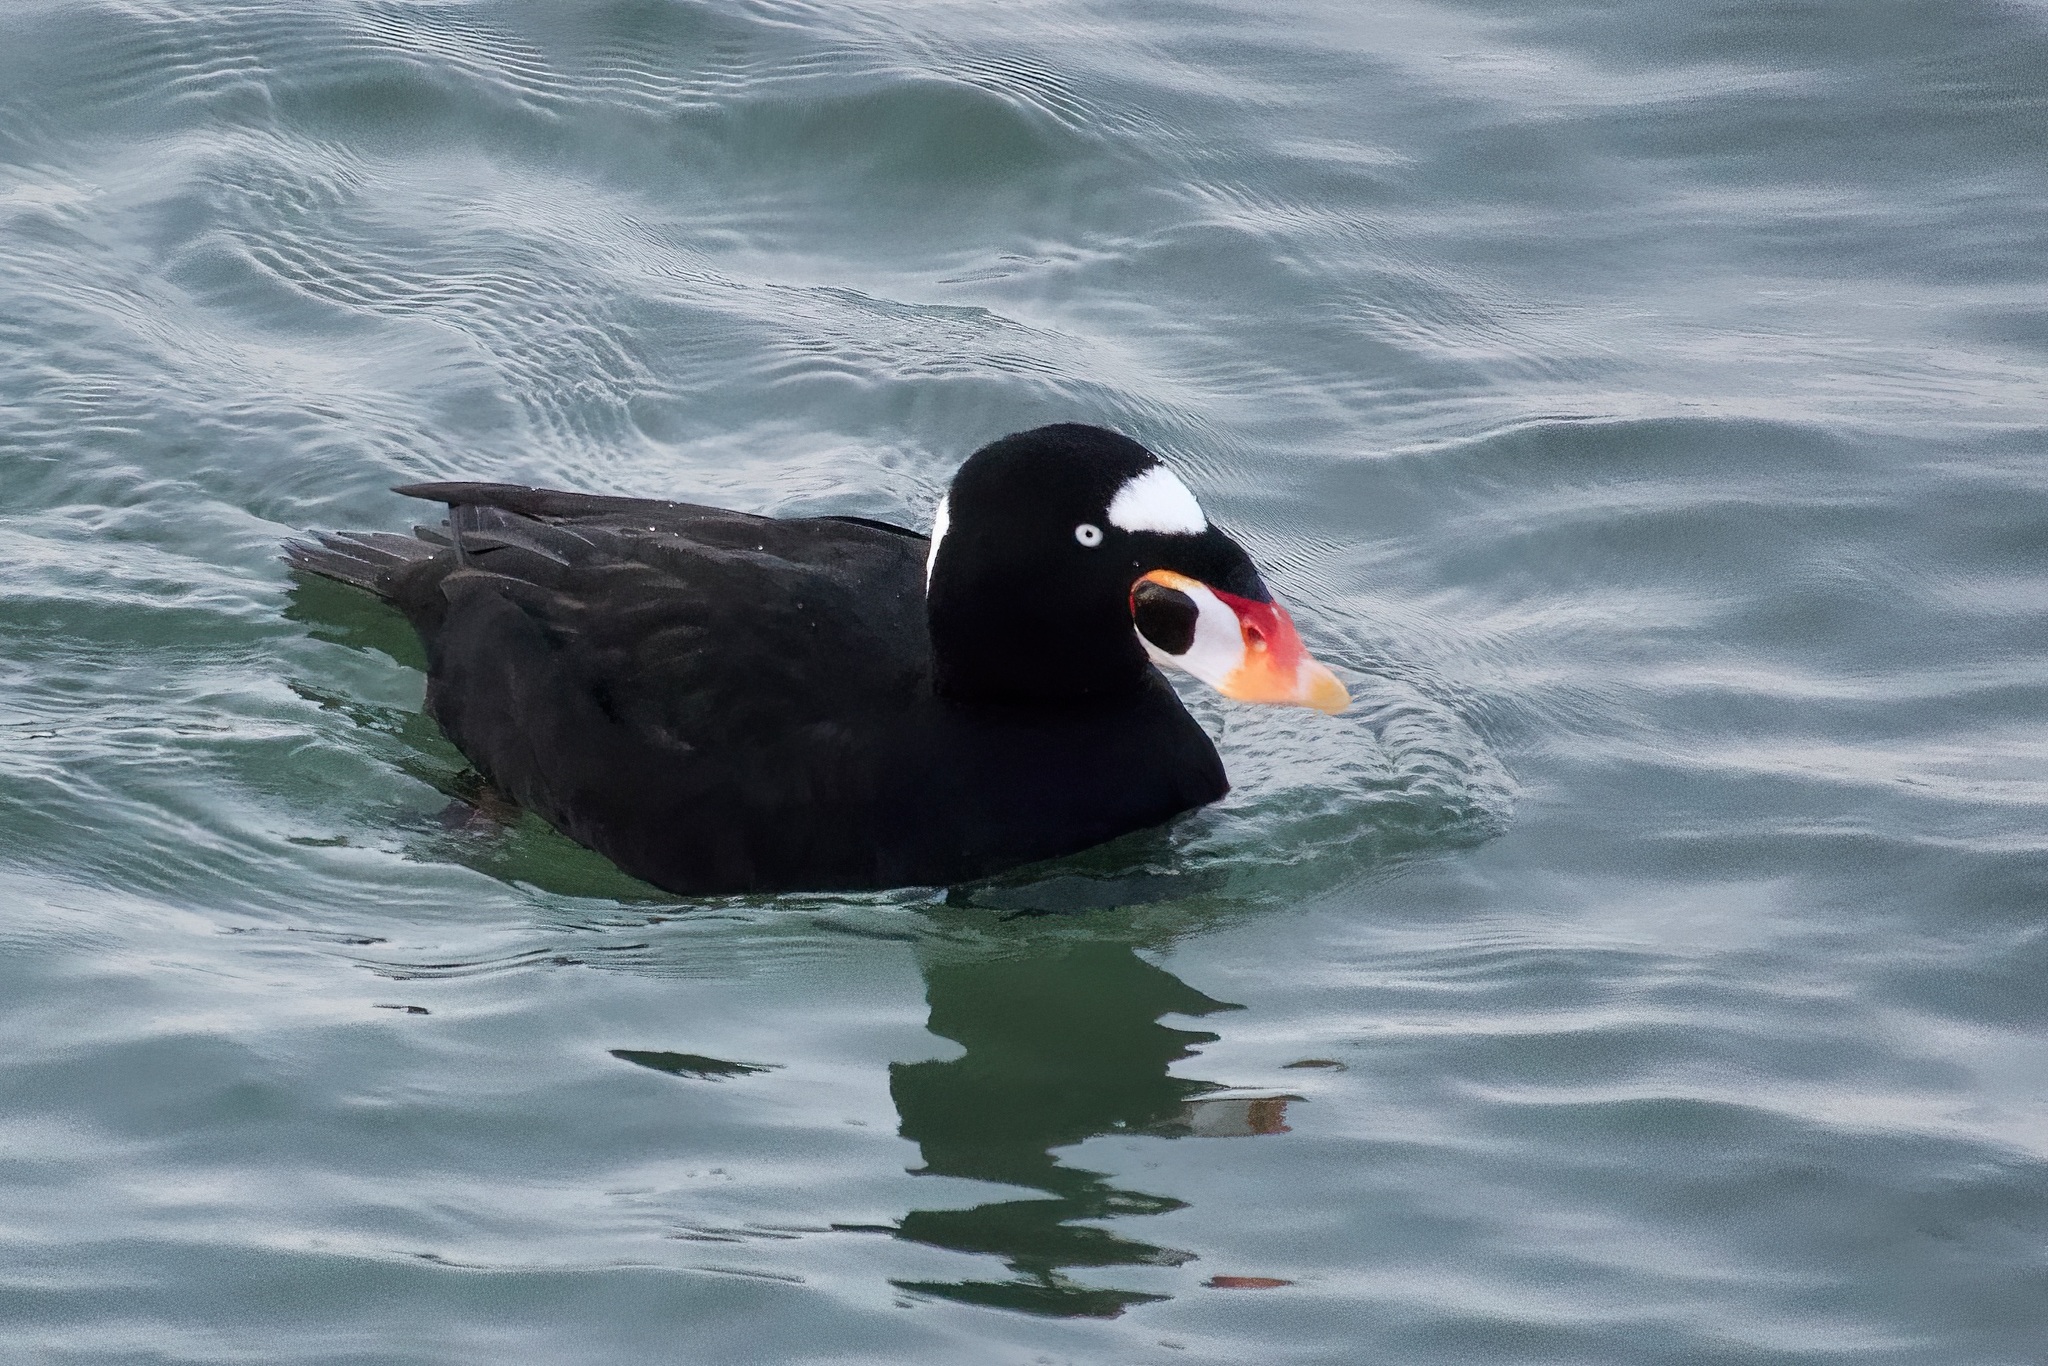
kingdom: Animalia
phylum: Chordata
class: Aves
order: Anseriformes
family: Anatidae
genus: Melanitta
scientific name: Melanitta perspicillata
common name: Surf scoter
